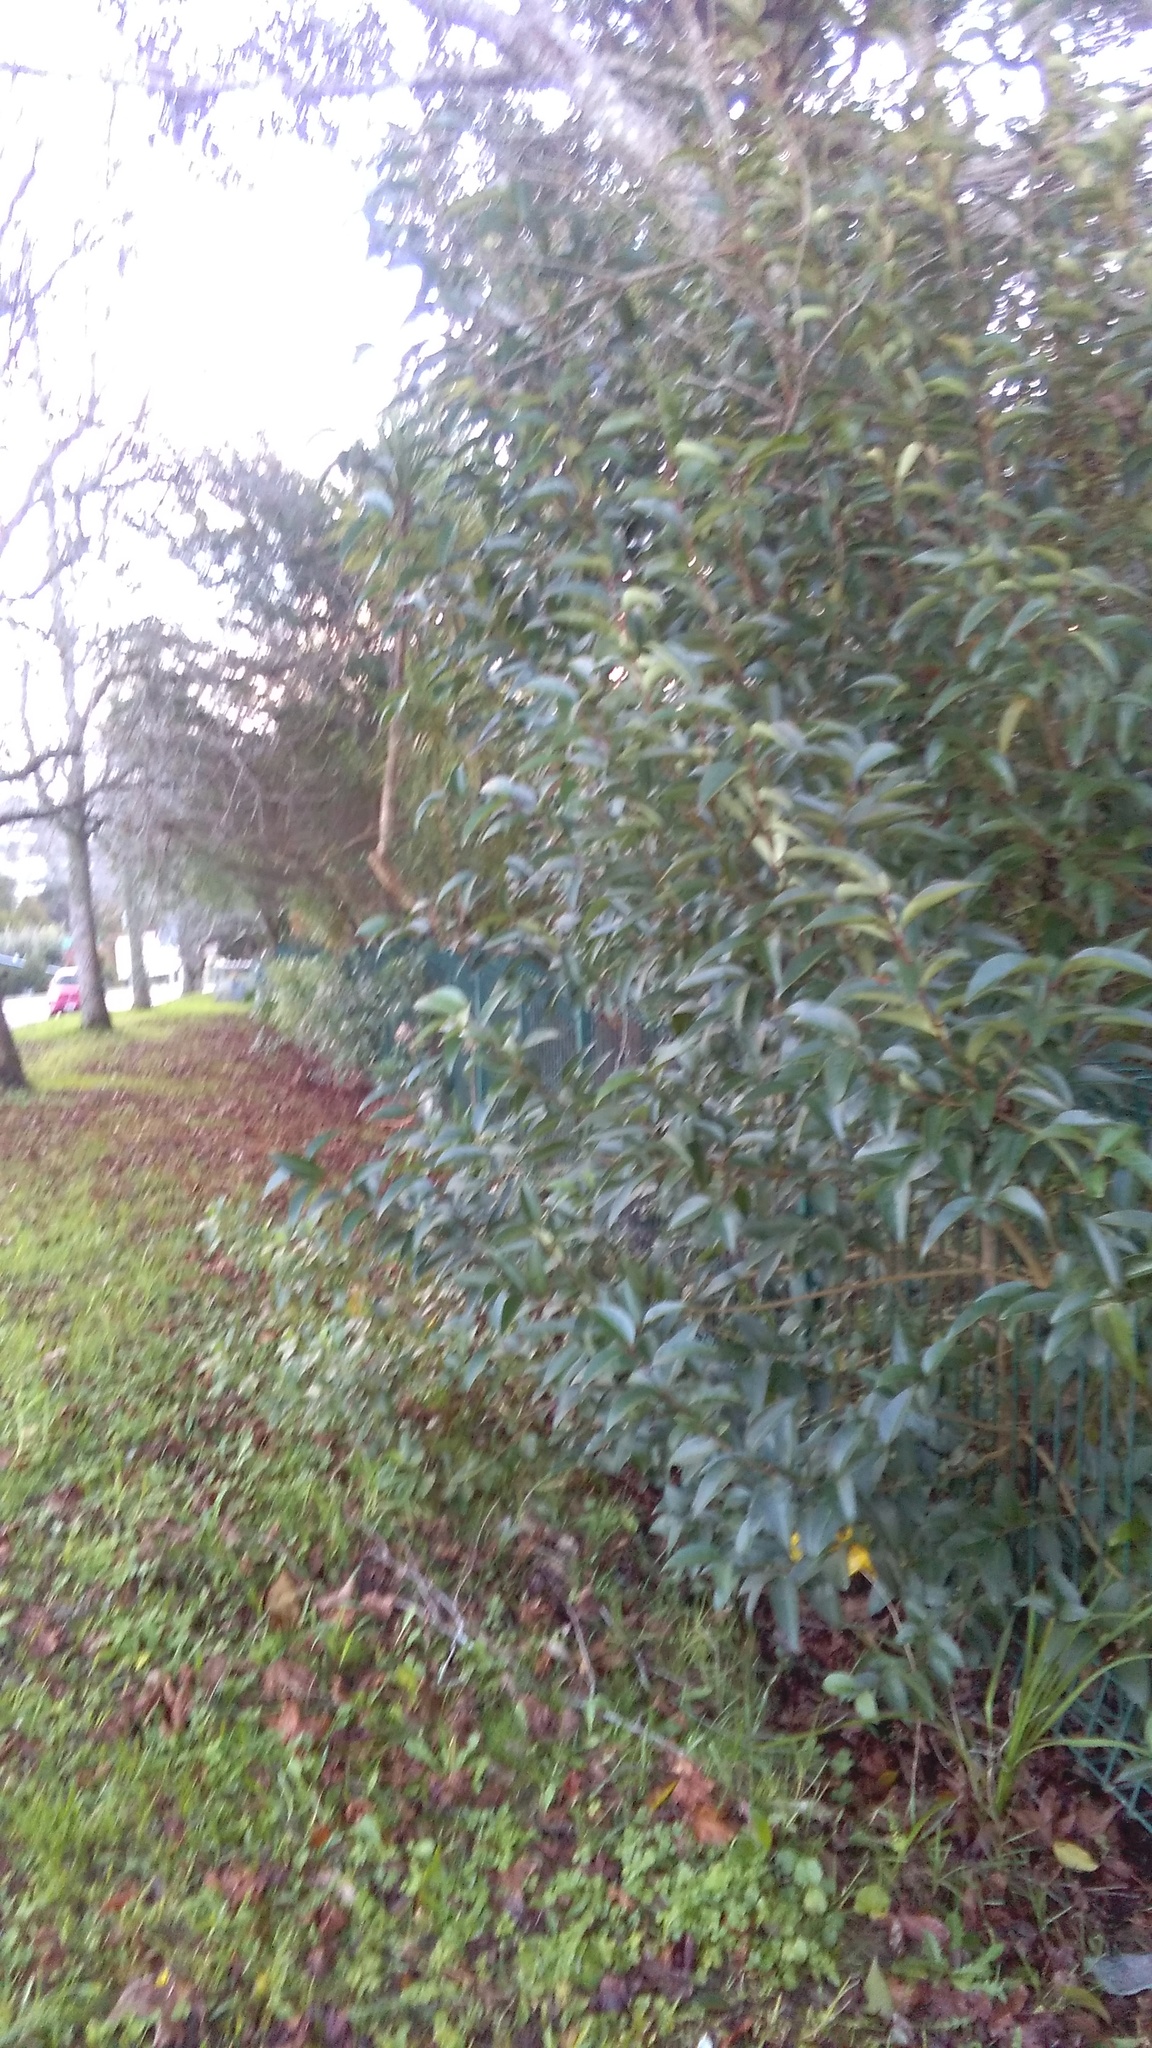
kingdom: Plantae
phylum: Tracheophyta
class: Magnoliopsida
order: Lamiales
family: Oleaceae
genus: Ligustrum
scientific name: Ligustrum lucidum
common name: Glossy privet
